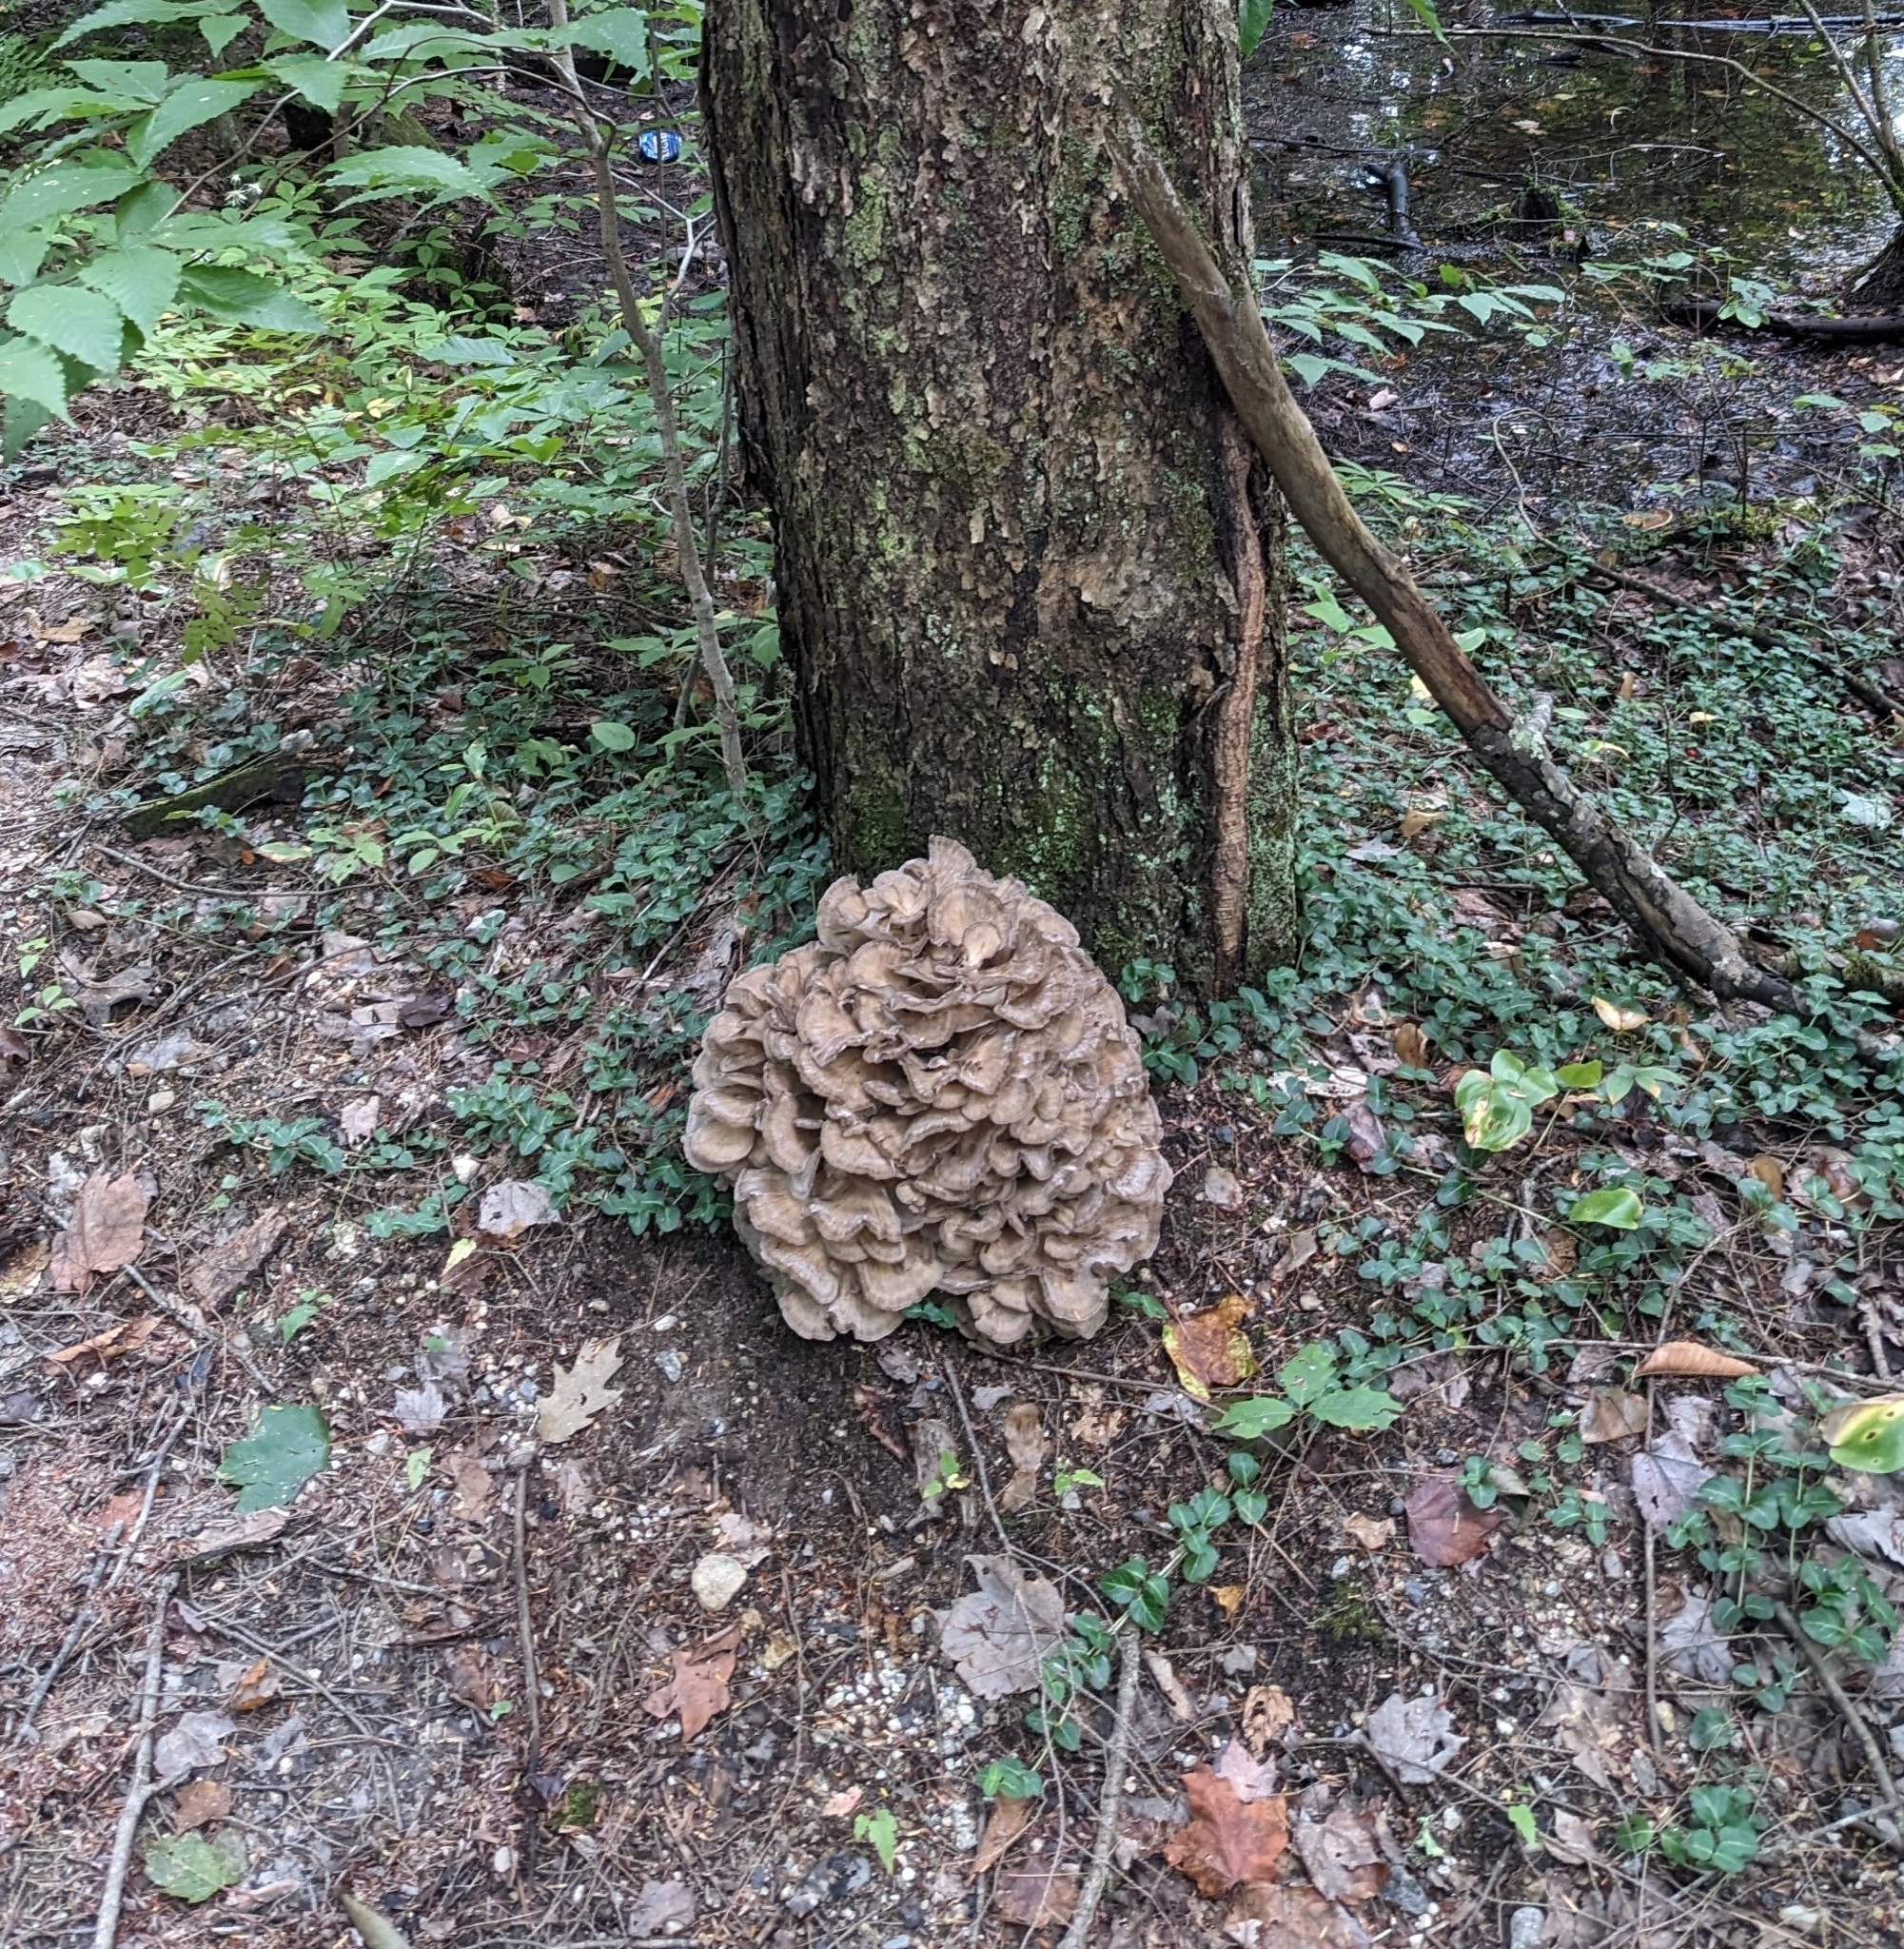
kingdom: Fungi
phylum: Basidiomycota
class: Agaricomycetes
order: Polyporales
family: Grifolaceae
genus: Grifola
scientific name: Grifola frondosa
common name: Hen of the woods
